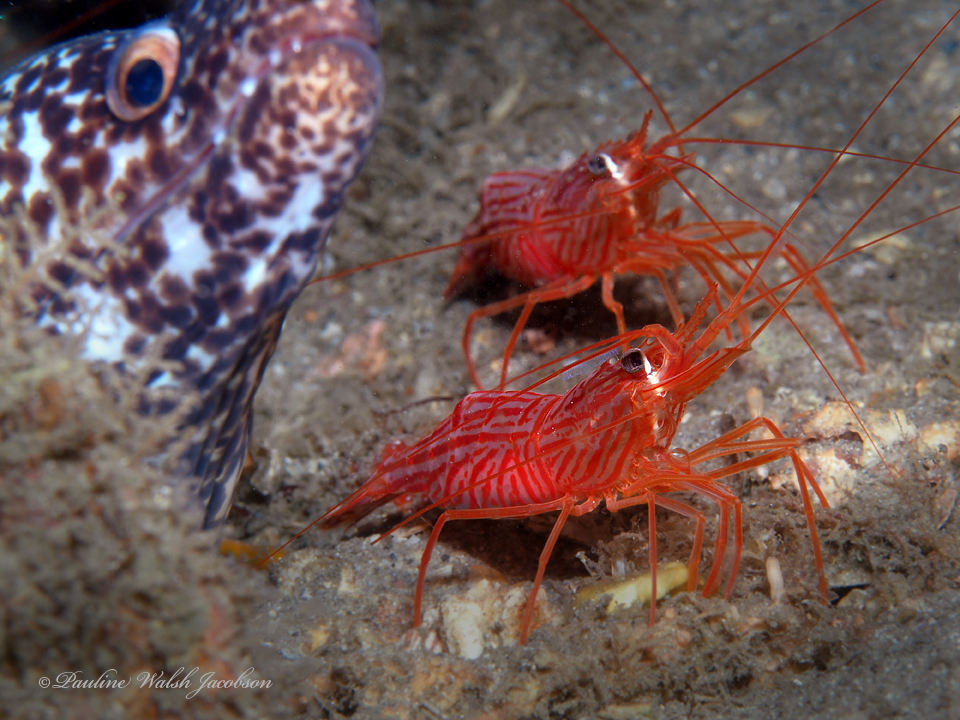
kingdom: Animalia
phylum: Arthropoda
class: Malacostraca
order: Decapoda
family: Lysmatidae
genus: Lysmata
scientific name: Lysmata rafa
